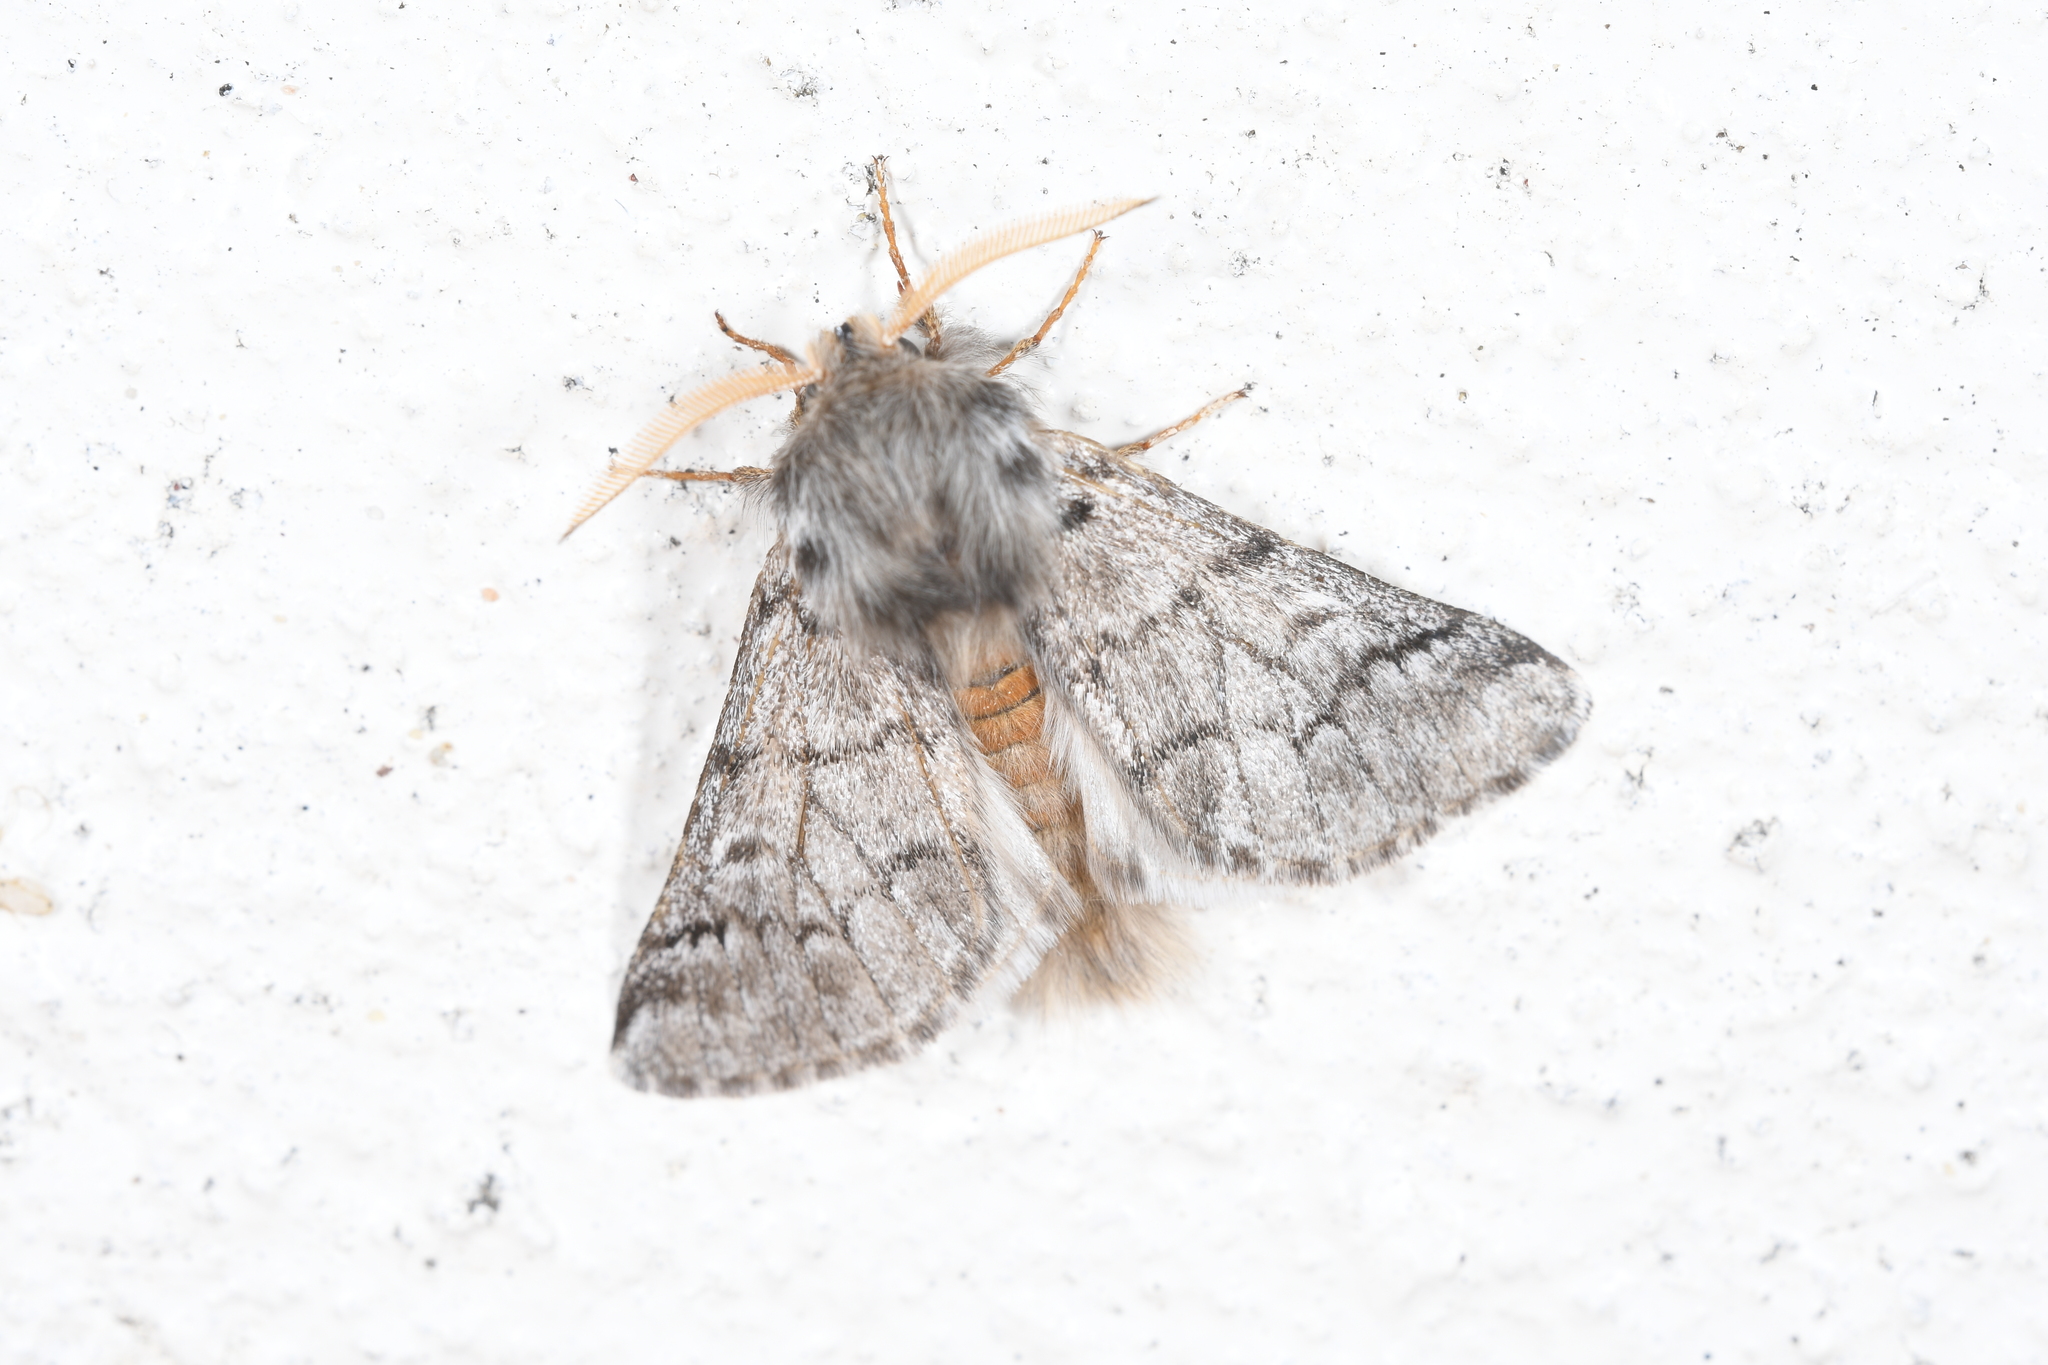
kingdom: Animalia
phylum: Arthropoda
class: Insecta
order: Lepidoptera
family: Notodontidae
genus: Thaumetopoea
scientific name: Thaumetopoea pityocampa
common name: Pine processionary
